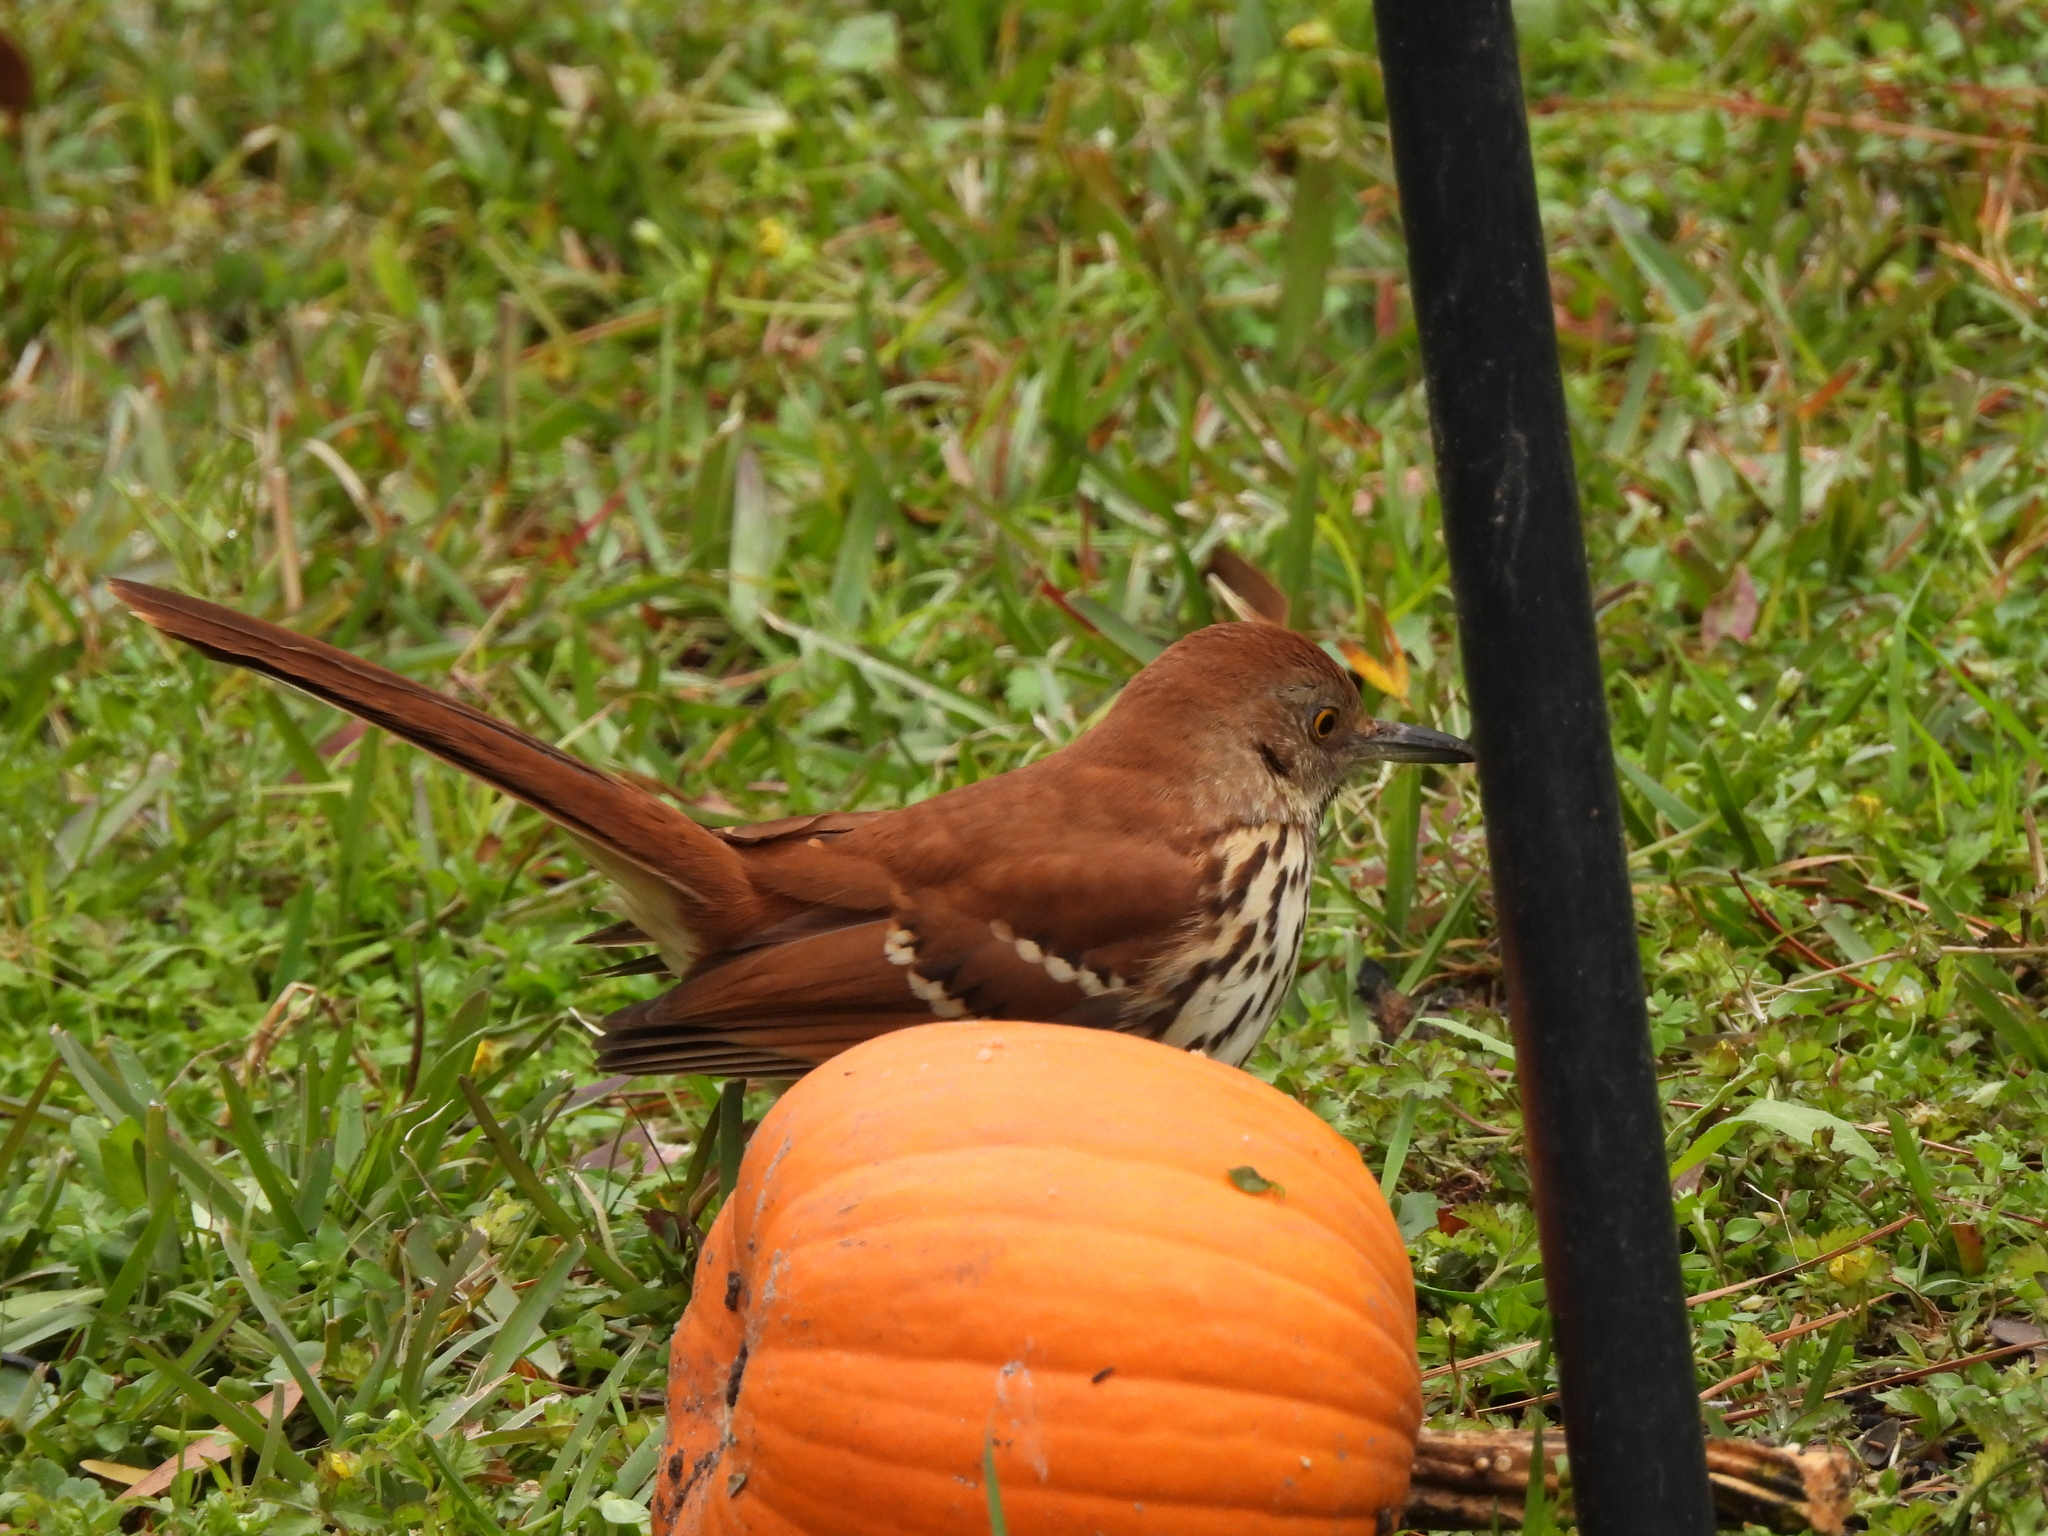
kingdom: Animalia
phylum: Chordata
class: Aves
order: Passeriformes
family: Mimidae
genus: Toxostoma
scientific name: Toxostoma rufum
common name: Brown thrasher
